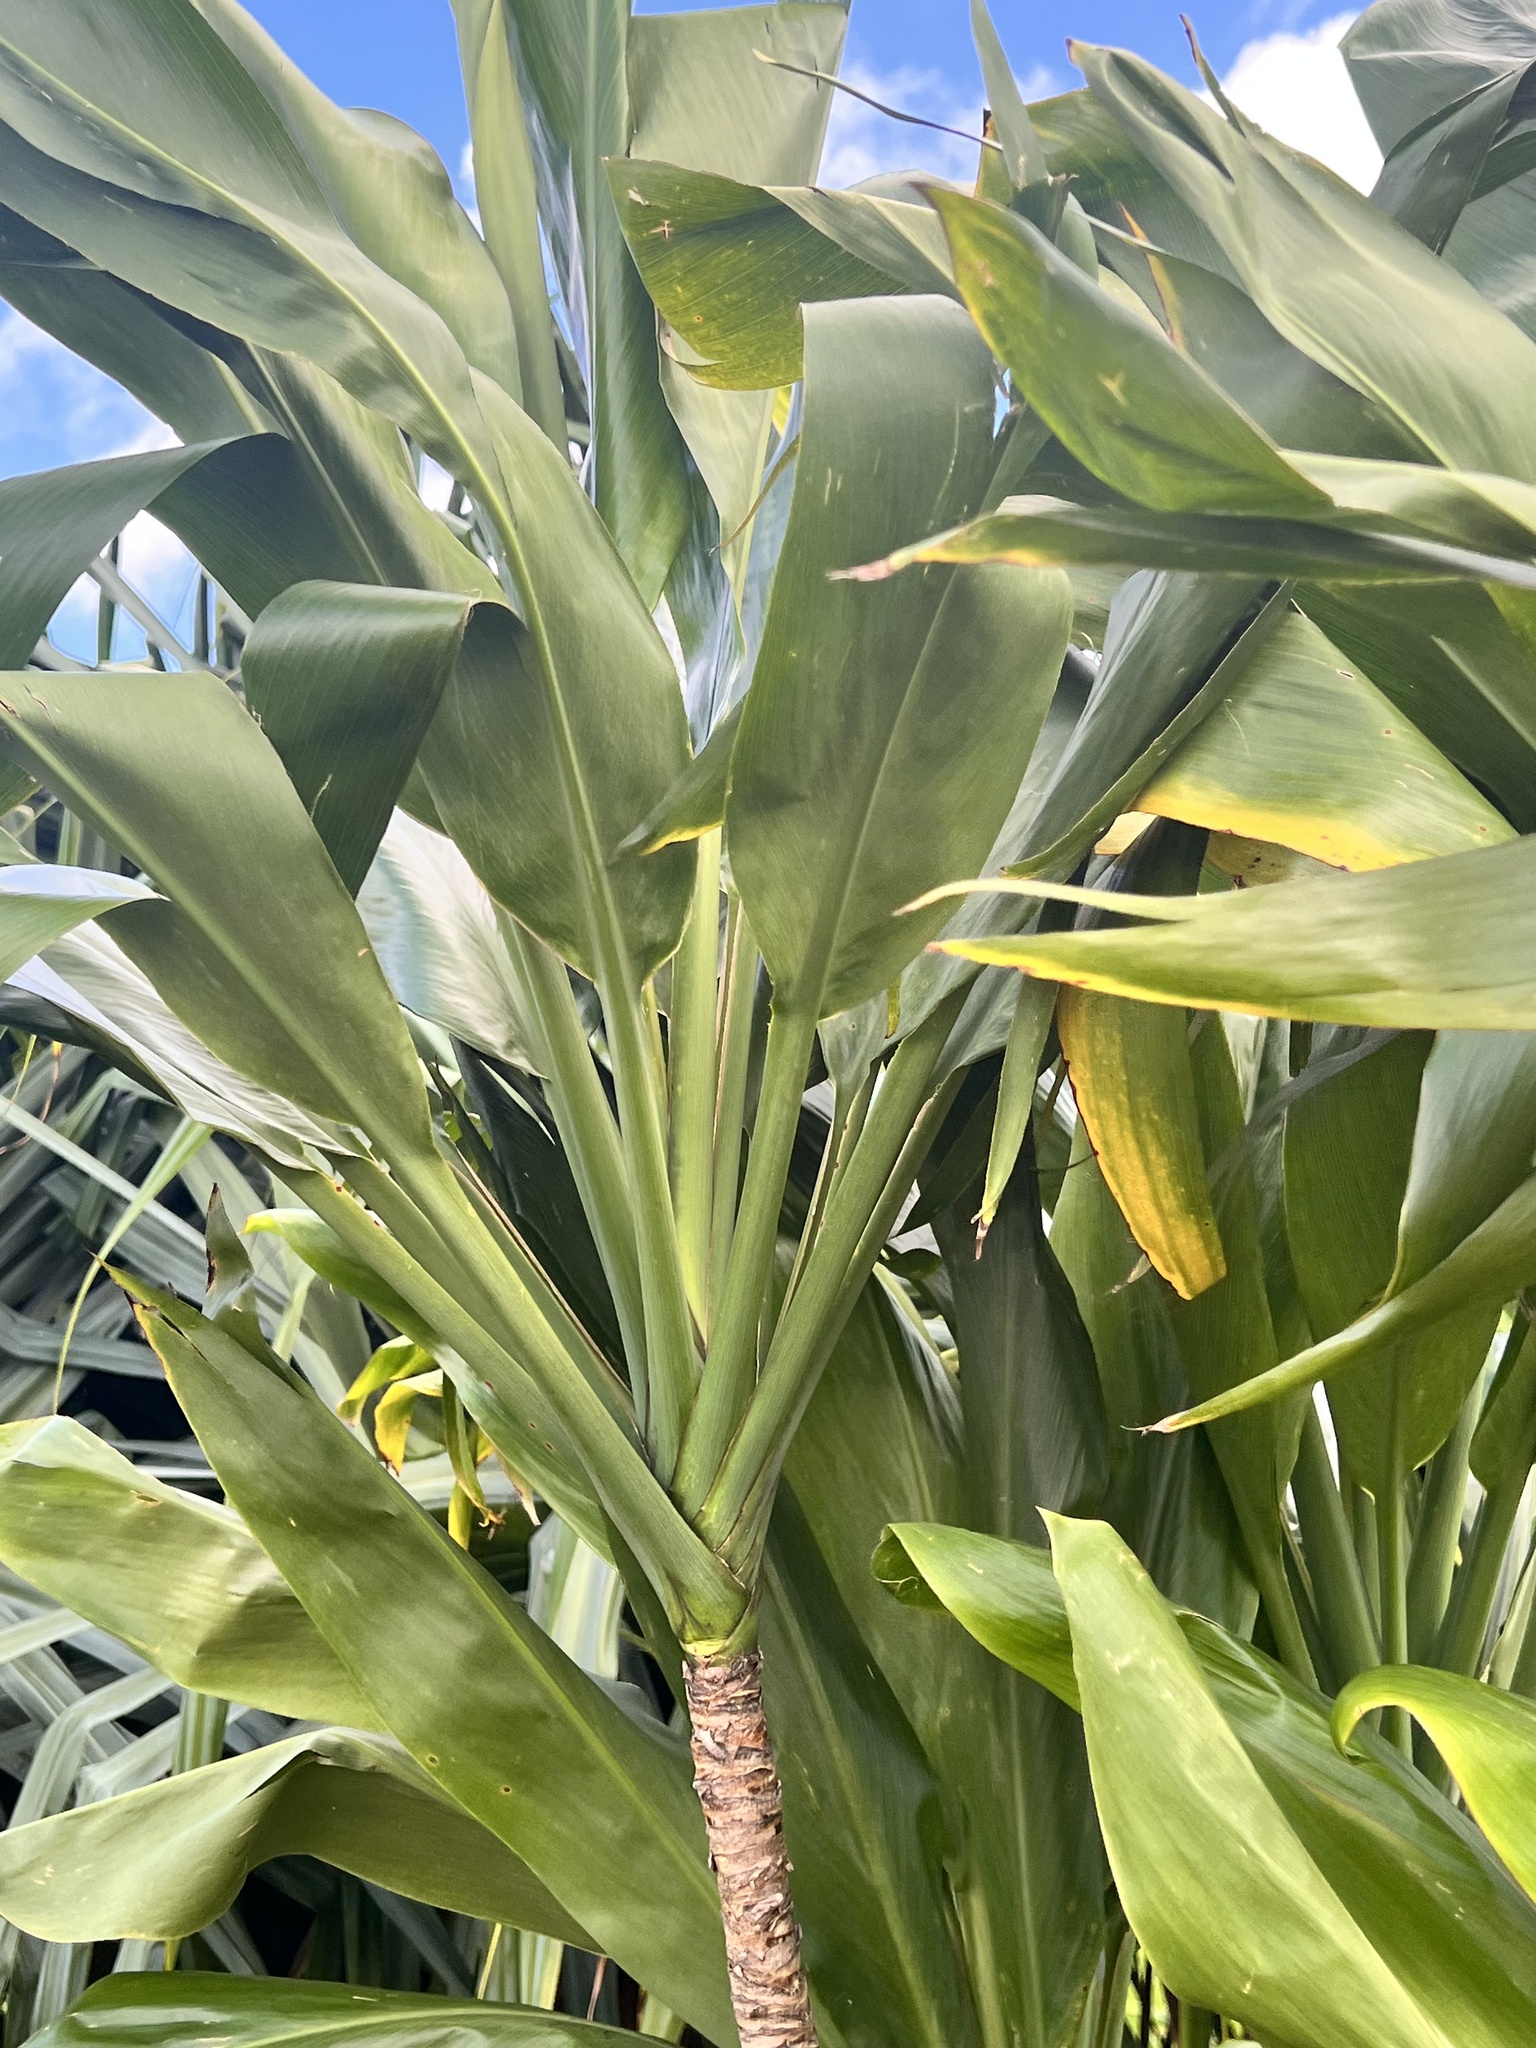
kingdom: Plantae
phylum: Tracheophyta
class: Liliopsida
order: Asparagales
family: Asparagaceae
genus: Cordyline
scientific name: Cordyline fruticosa
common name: Good-luck-plant
